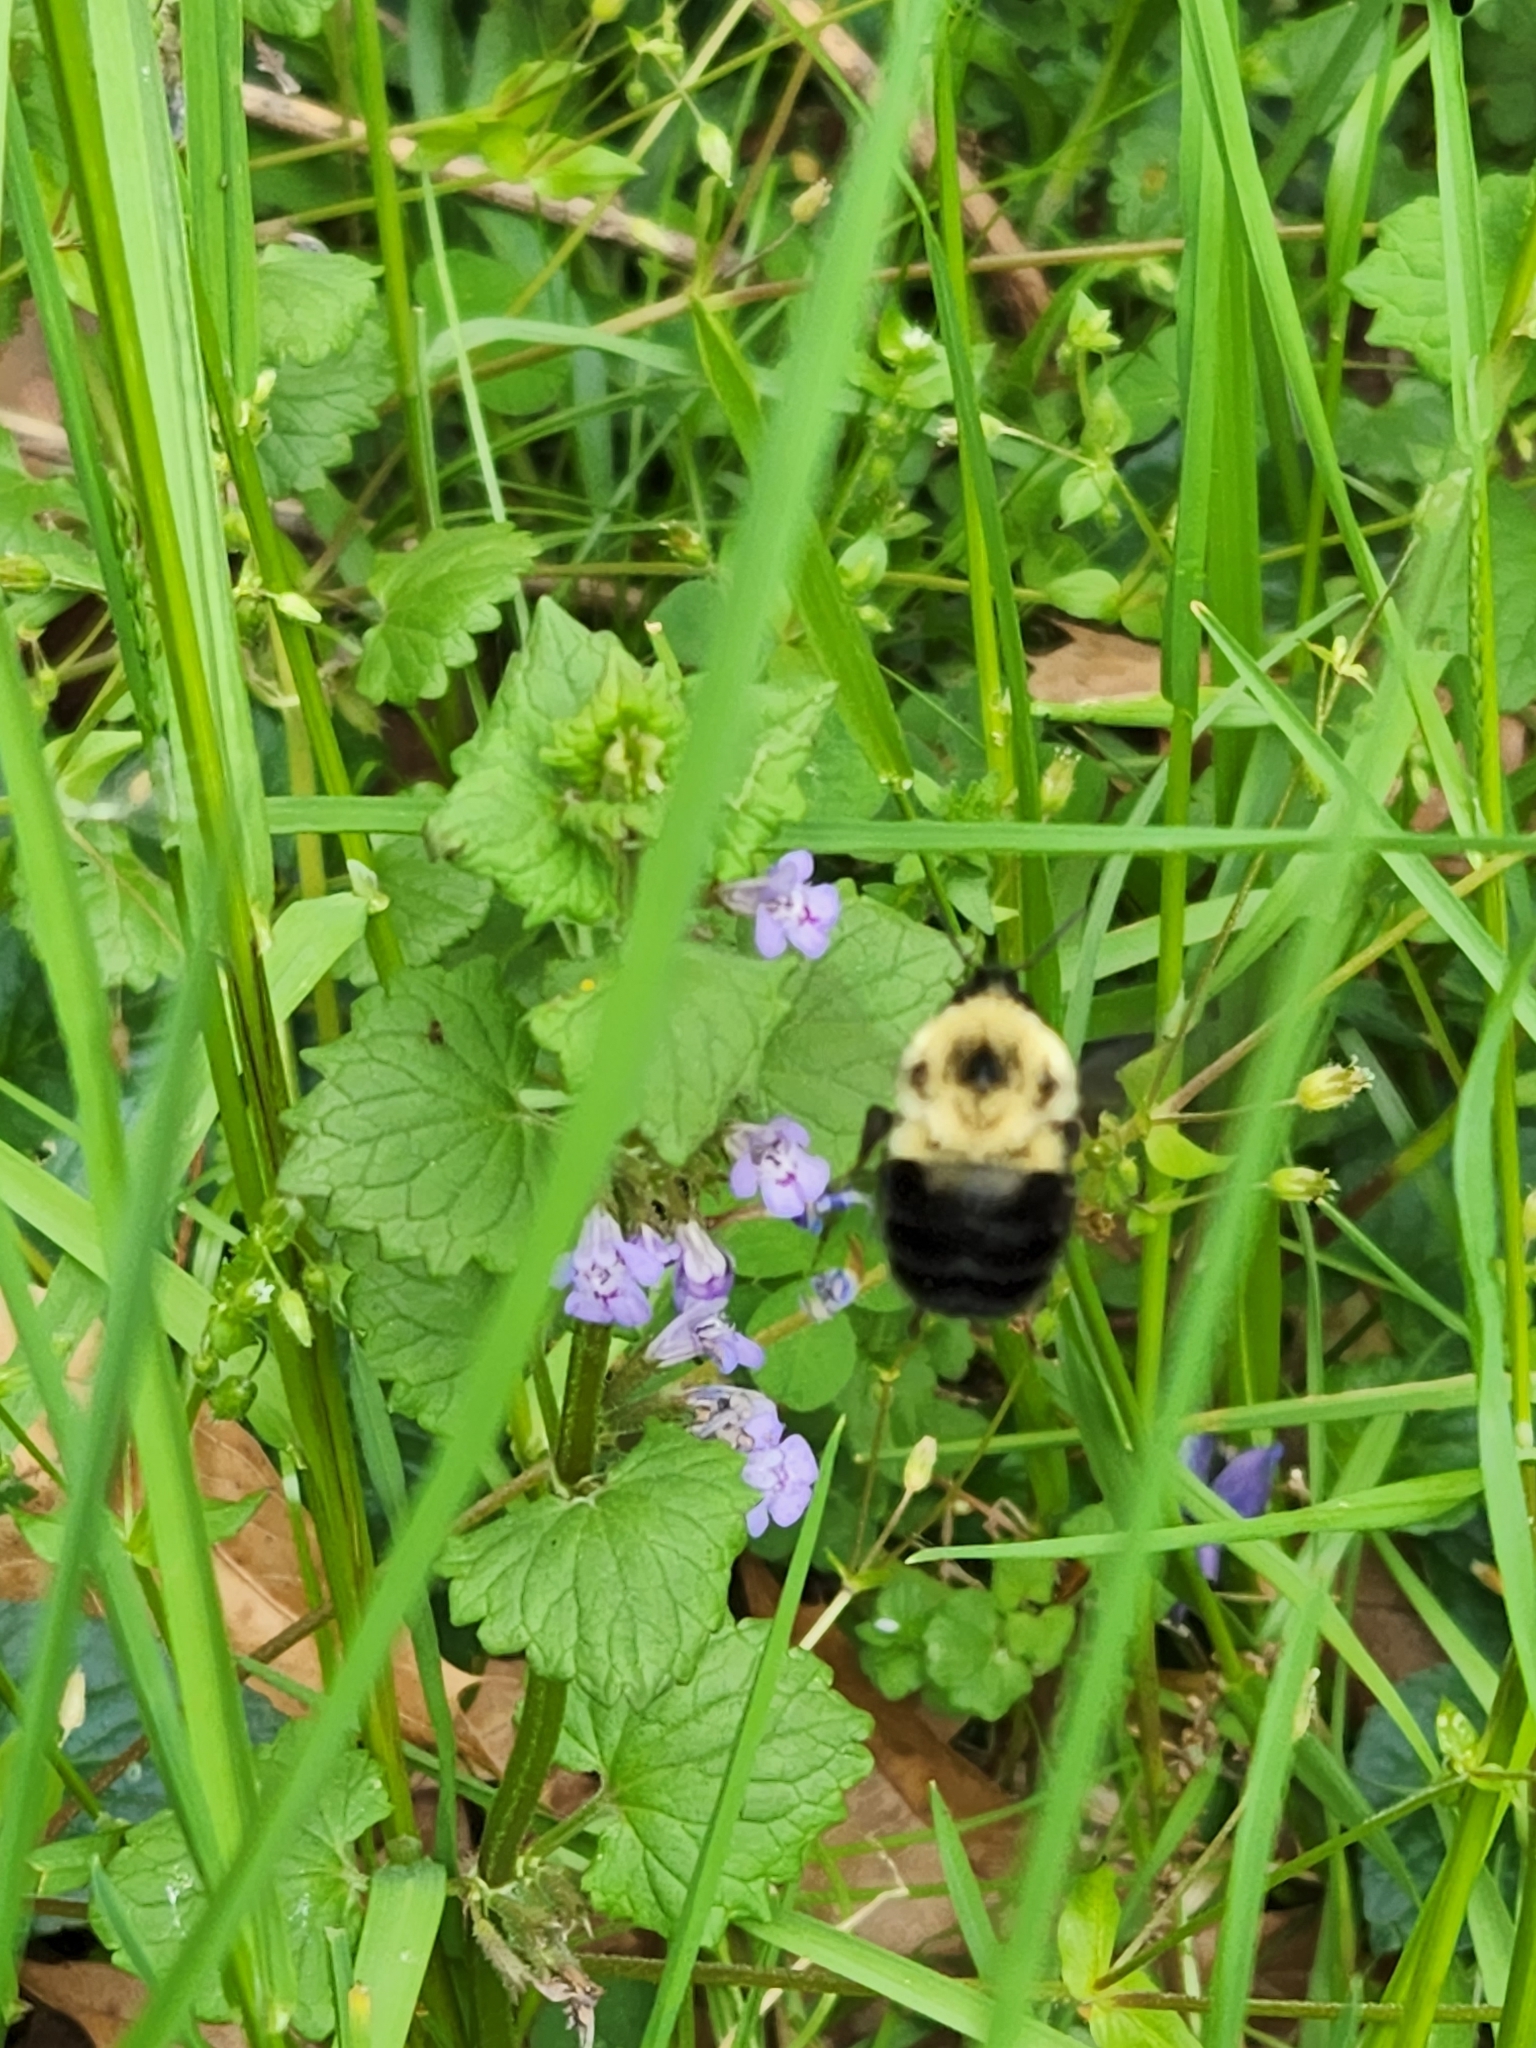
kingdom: Animalia
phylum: Arthropoda
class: Insecta
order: Hymenoptera
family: Apidae
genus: Bombus
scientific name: Bombus bimaculatus
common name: Two-spotted bumble bee
